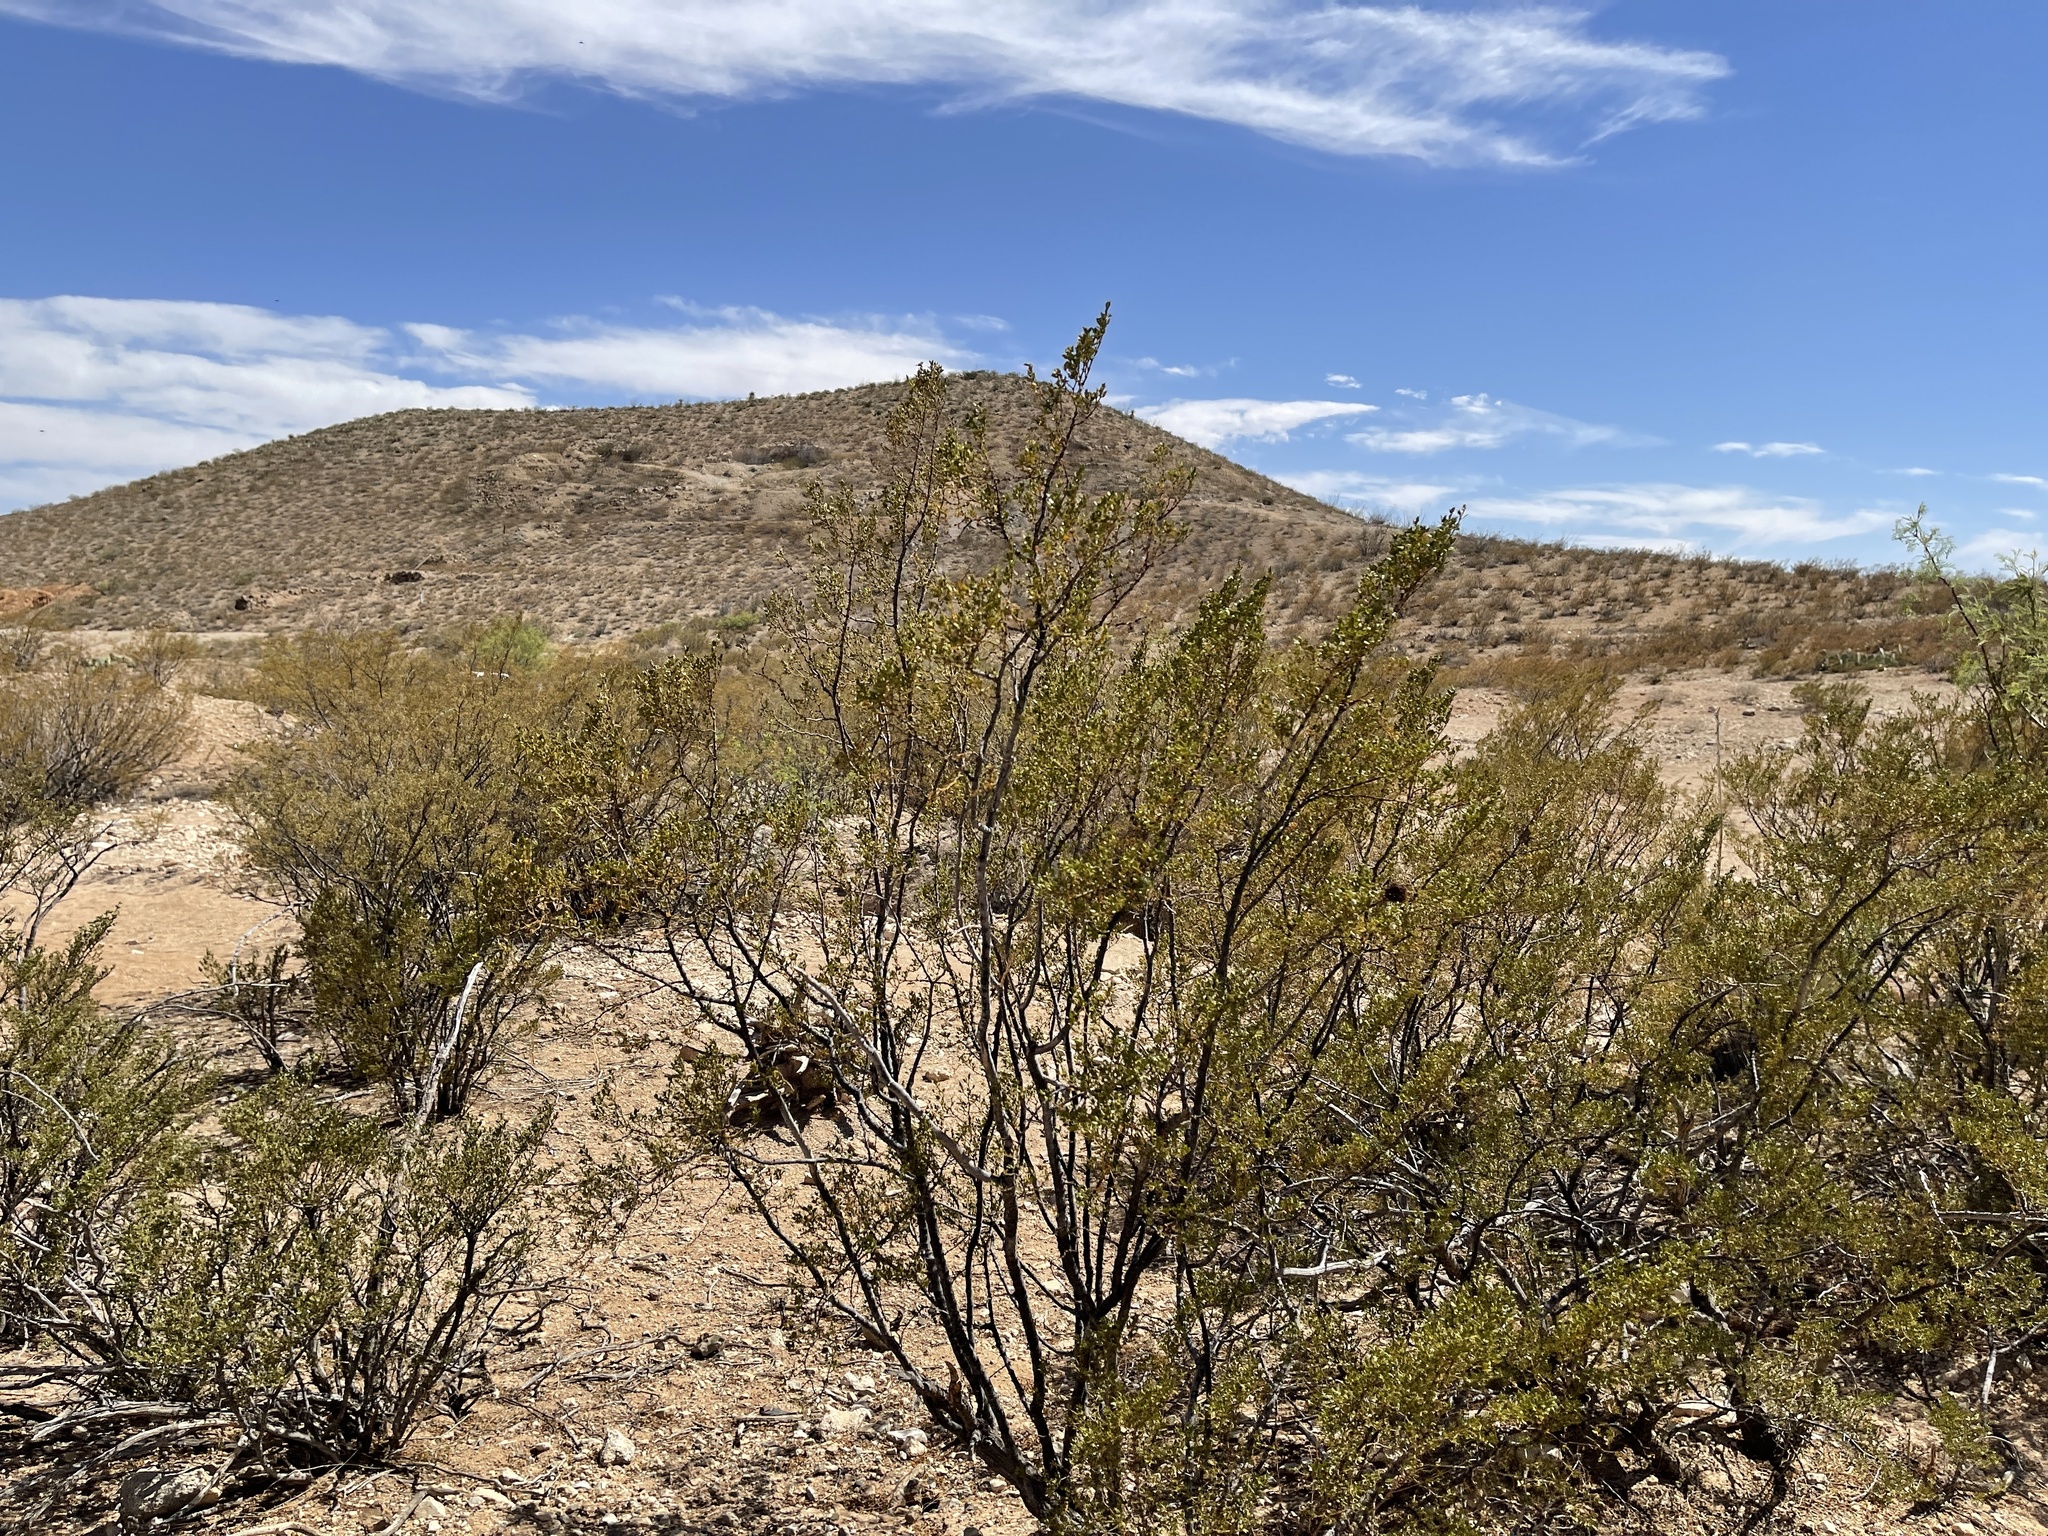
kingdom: Plantae
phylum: Tracheophyta
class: Magnoliopsida
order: Zygophyllales
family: Zygophyllaceae
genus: Larrea
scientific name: Larrea tridentata
